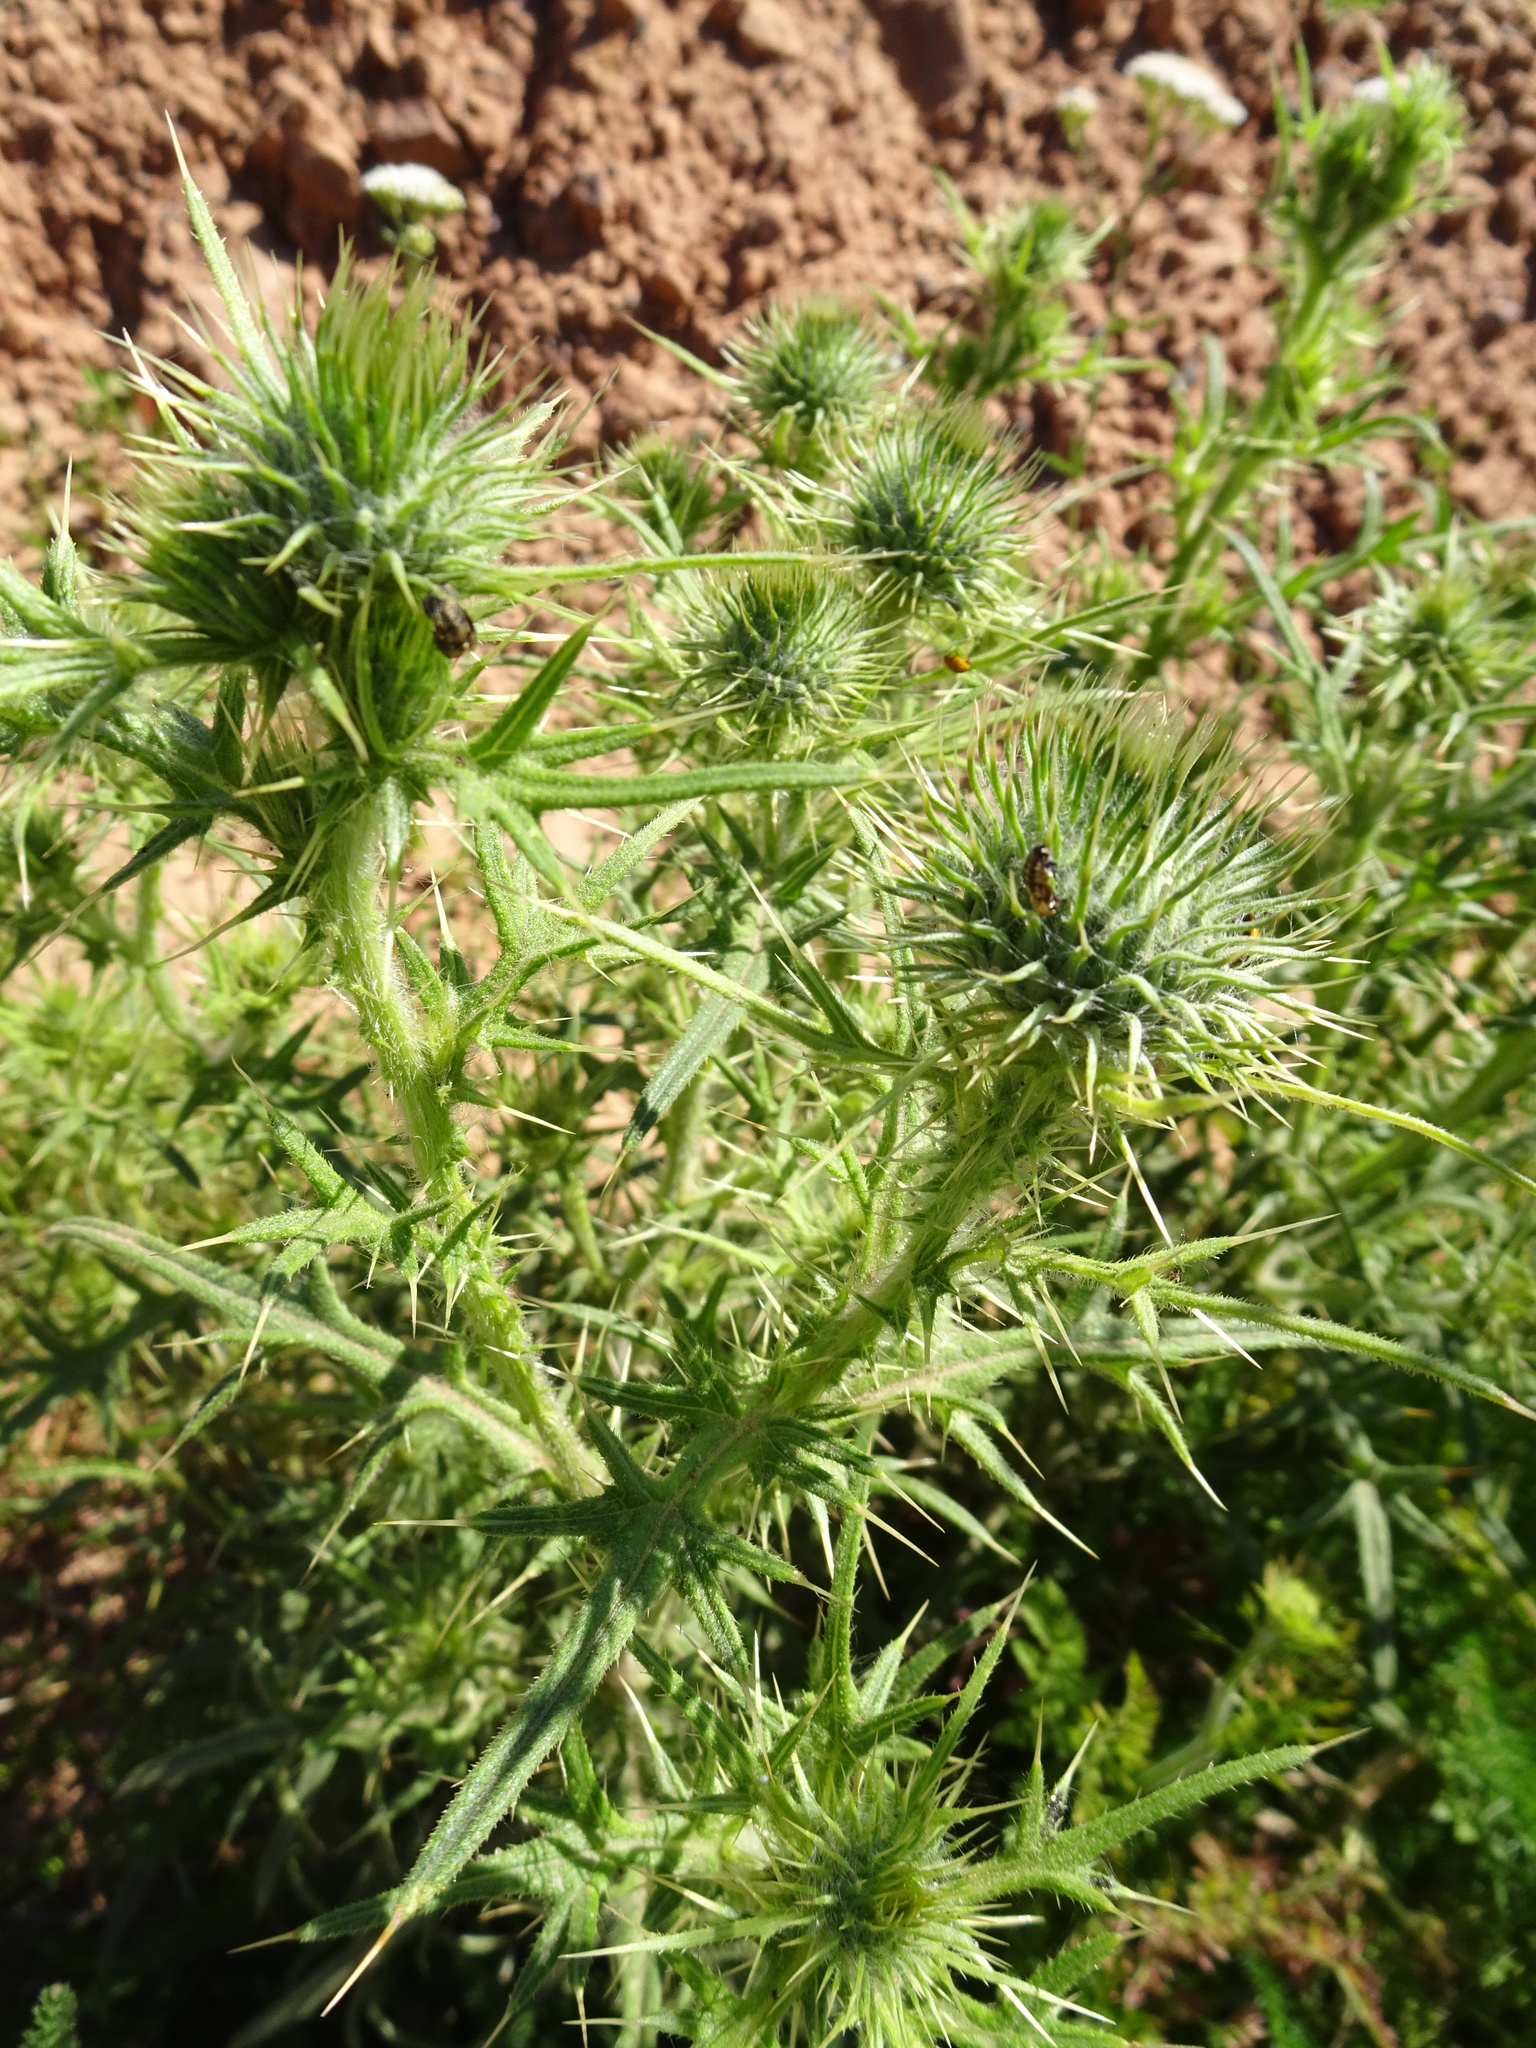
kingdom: Plantae
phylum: Tracheophyta
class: Magnoliopsida
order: Asterales
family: Asteraceae
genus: Cirsium
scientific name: Cirsium vulgare
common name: Bull thistle
